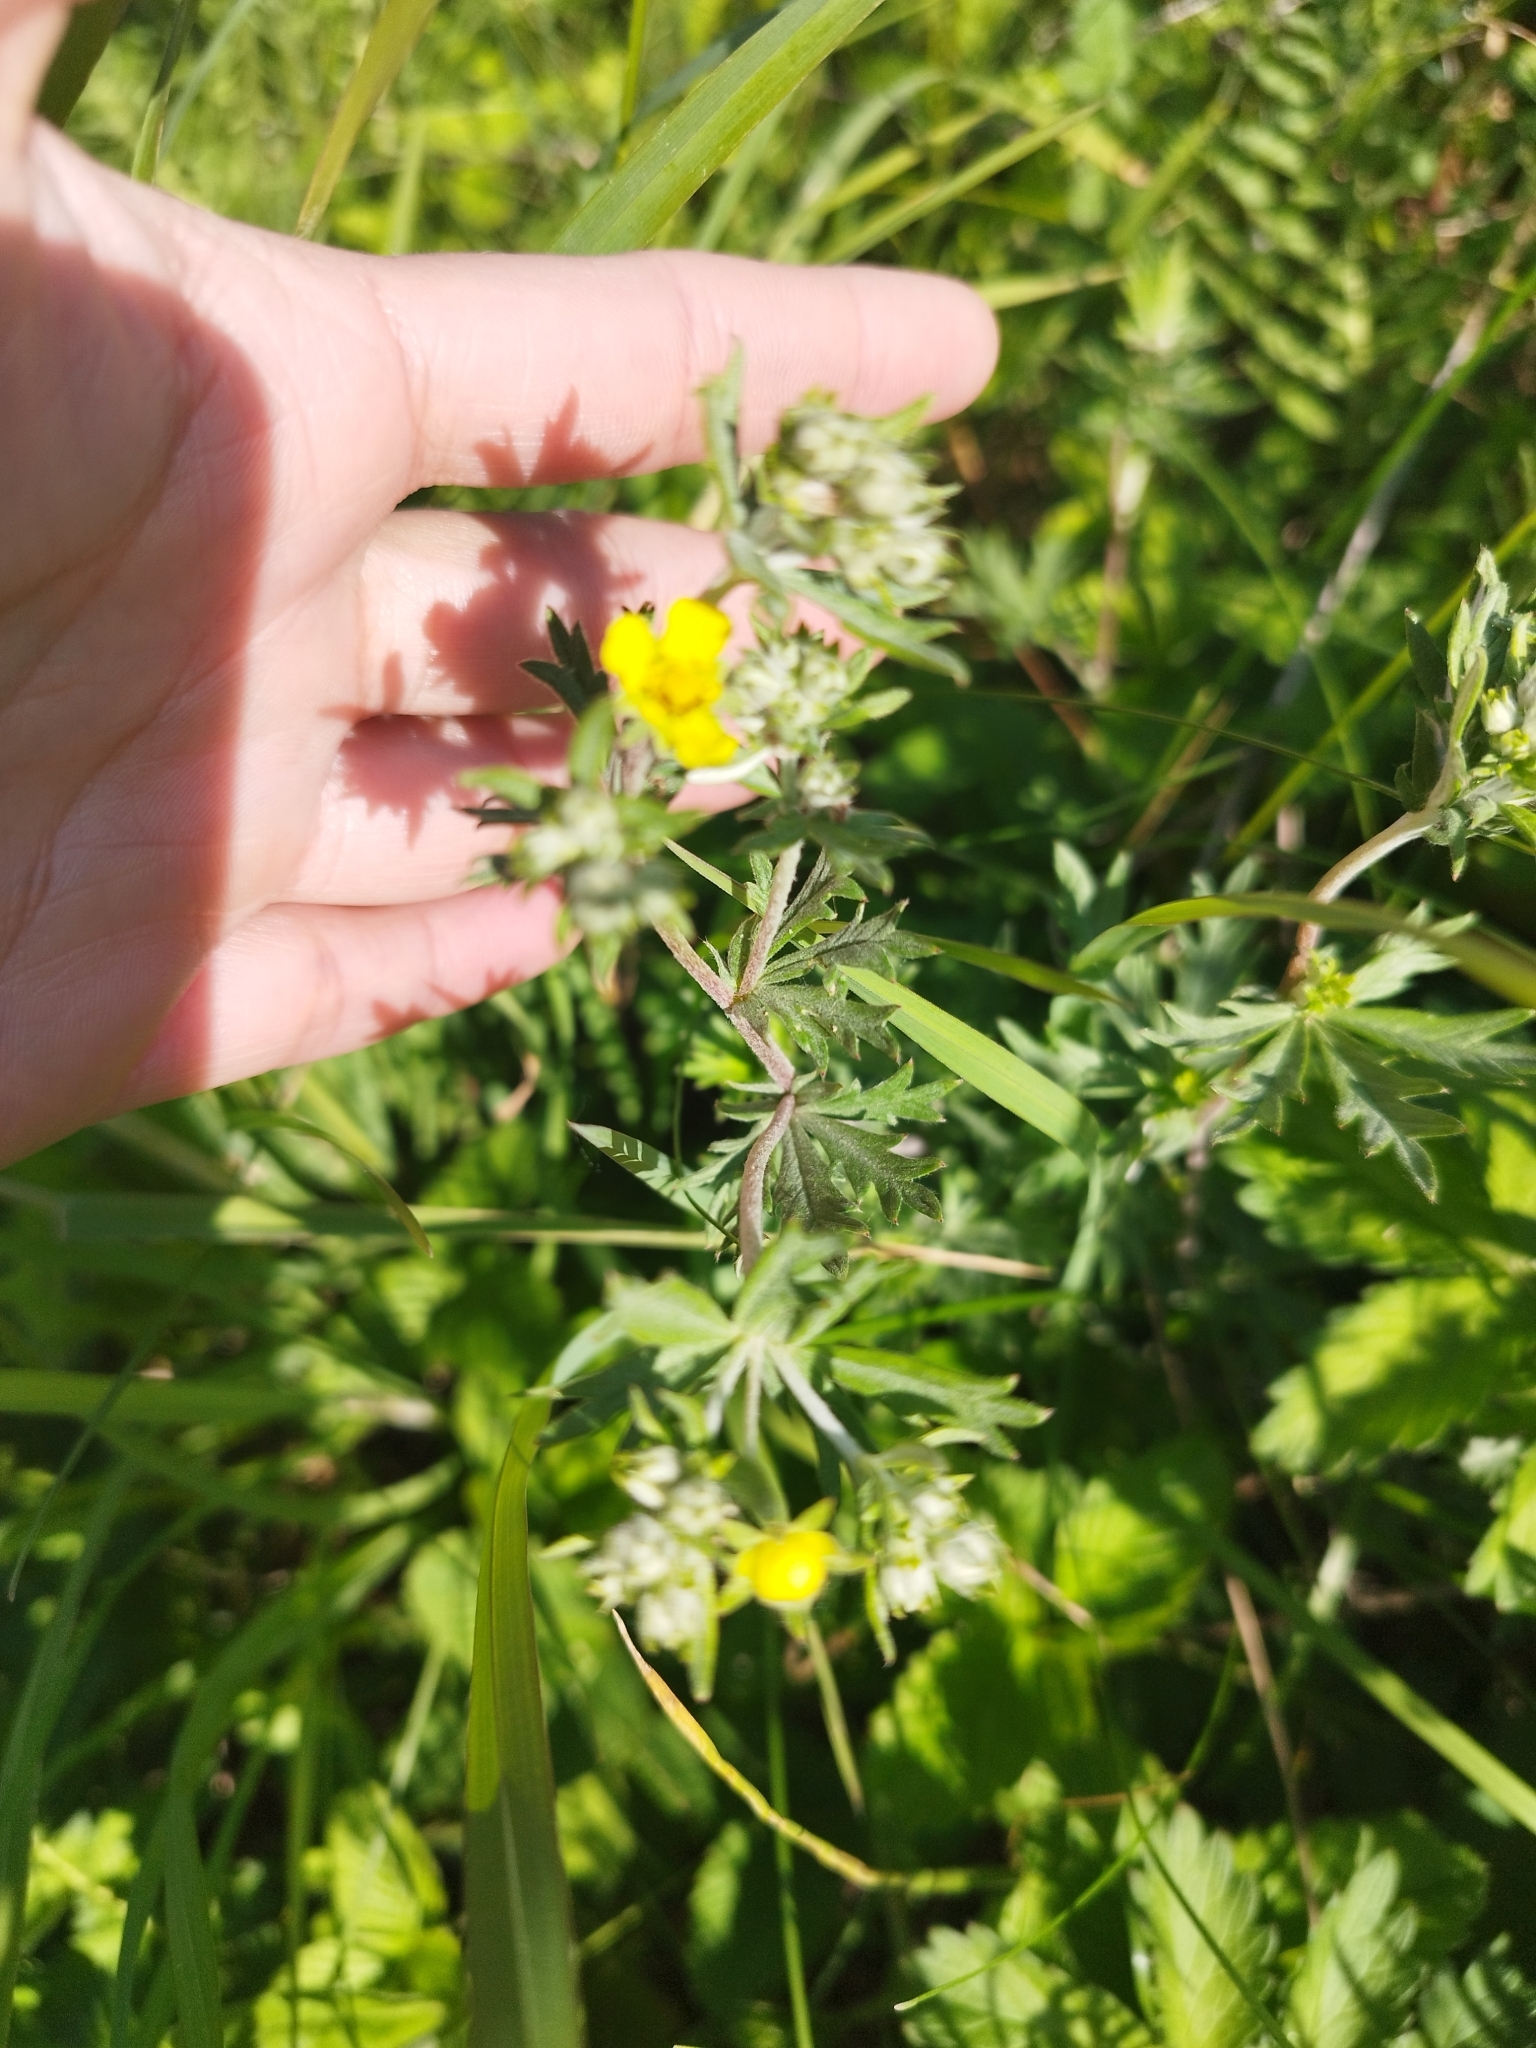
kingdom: Plantae
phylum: Tracheophyta
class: Magnoliopsida
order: Rosales
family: Rosaceae
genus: Potentilla
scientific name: Potentilla argentea
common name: Hoary cinquefoil
